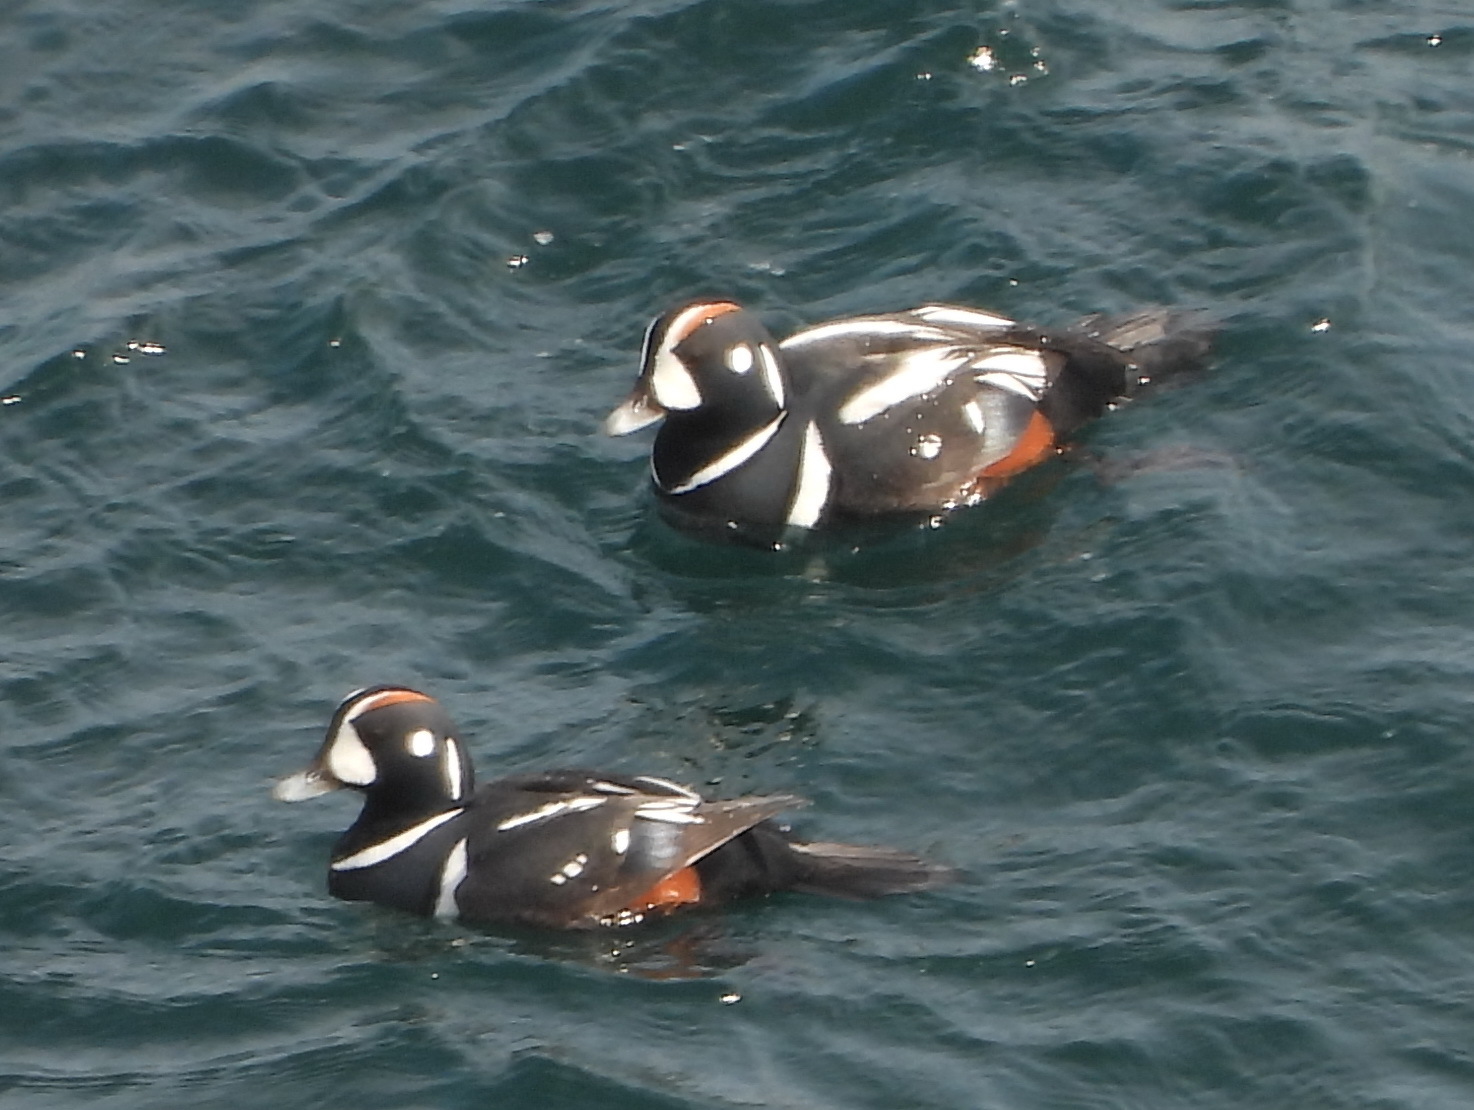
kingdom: Animalia
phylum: Chordata
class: Aves
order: Anseriformes
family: Anatidae
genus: Histrionicus
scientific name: Histrionicus histrionicus
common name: Harlequin duck
